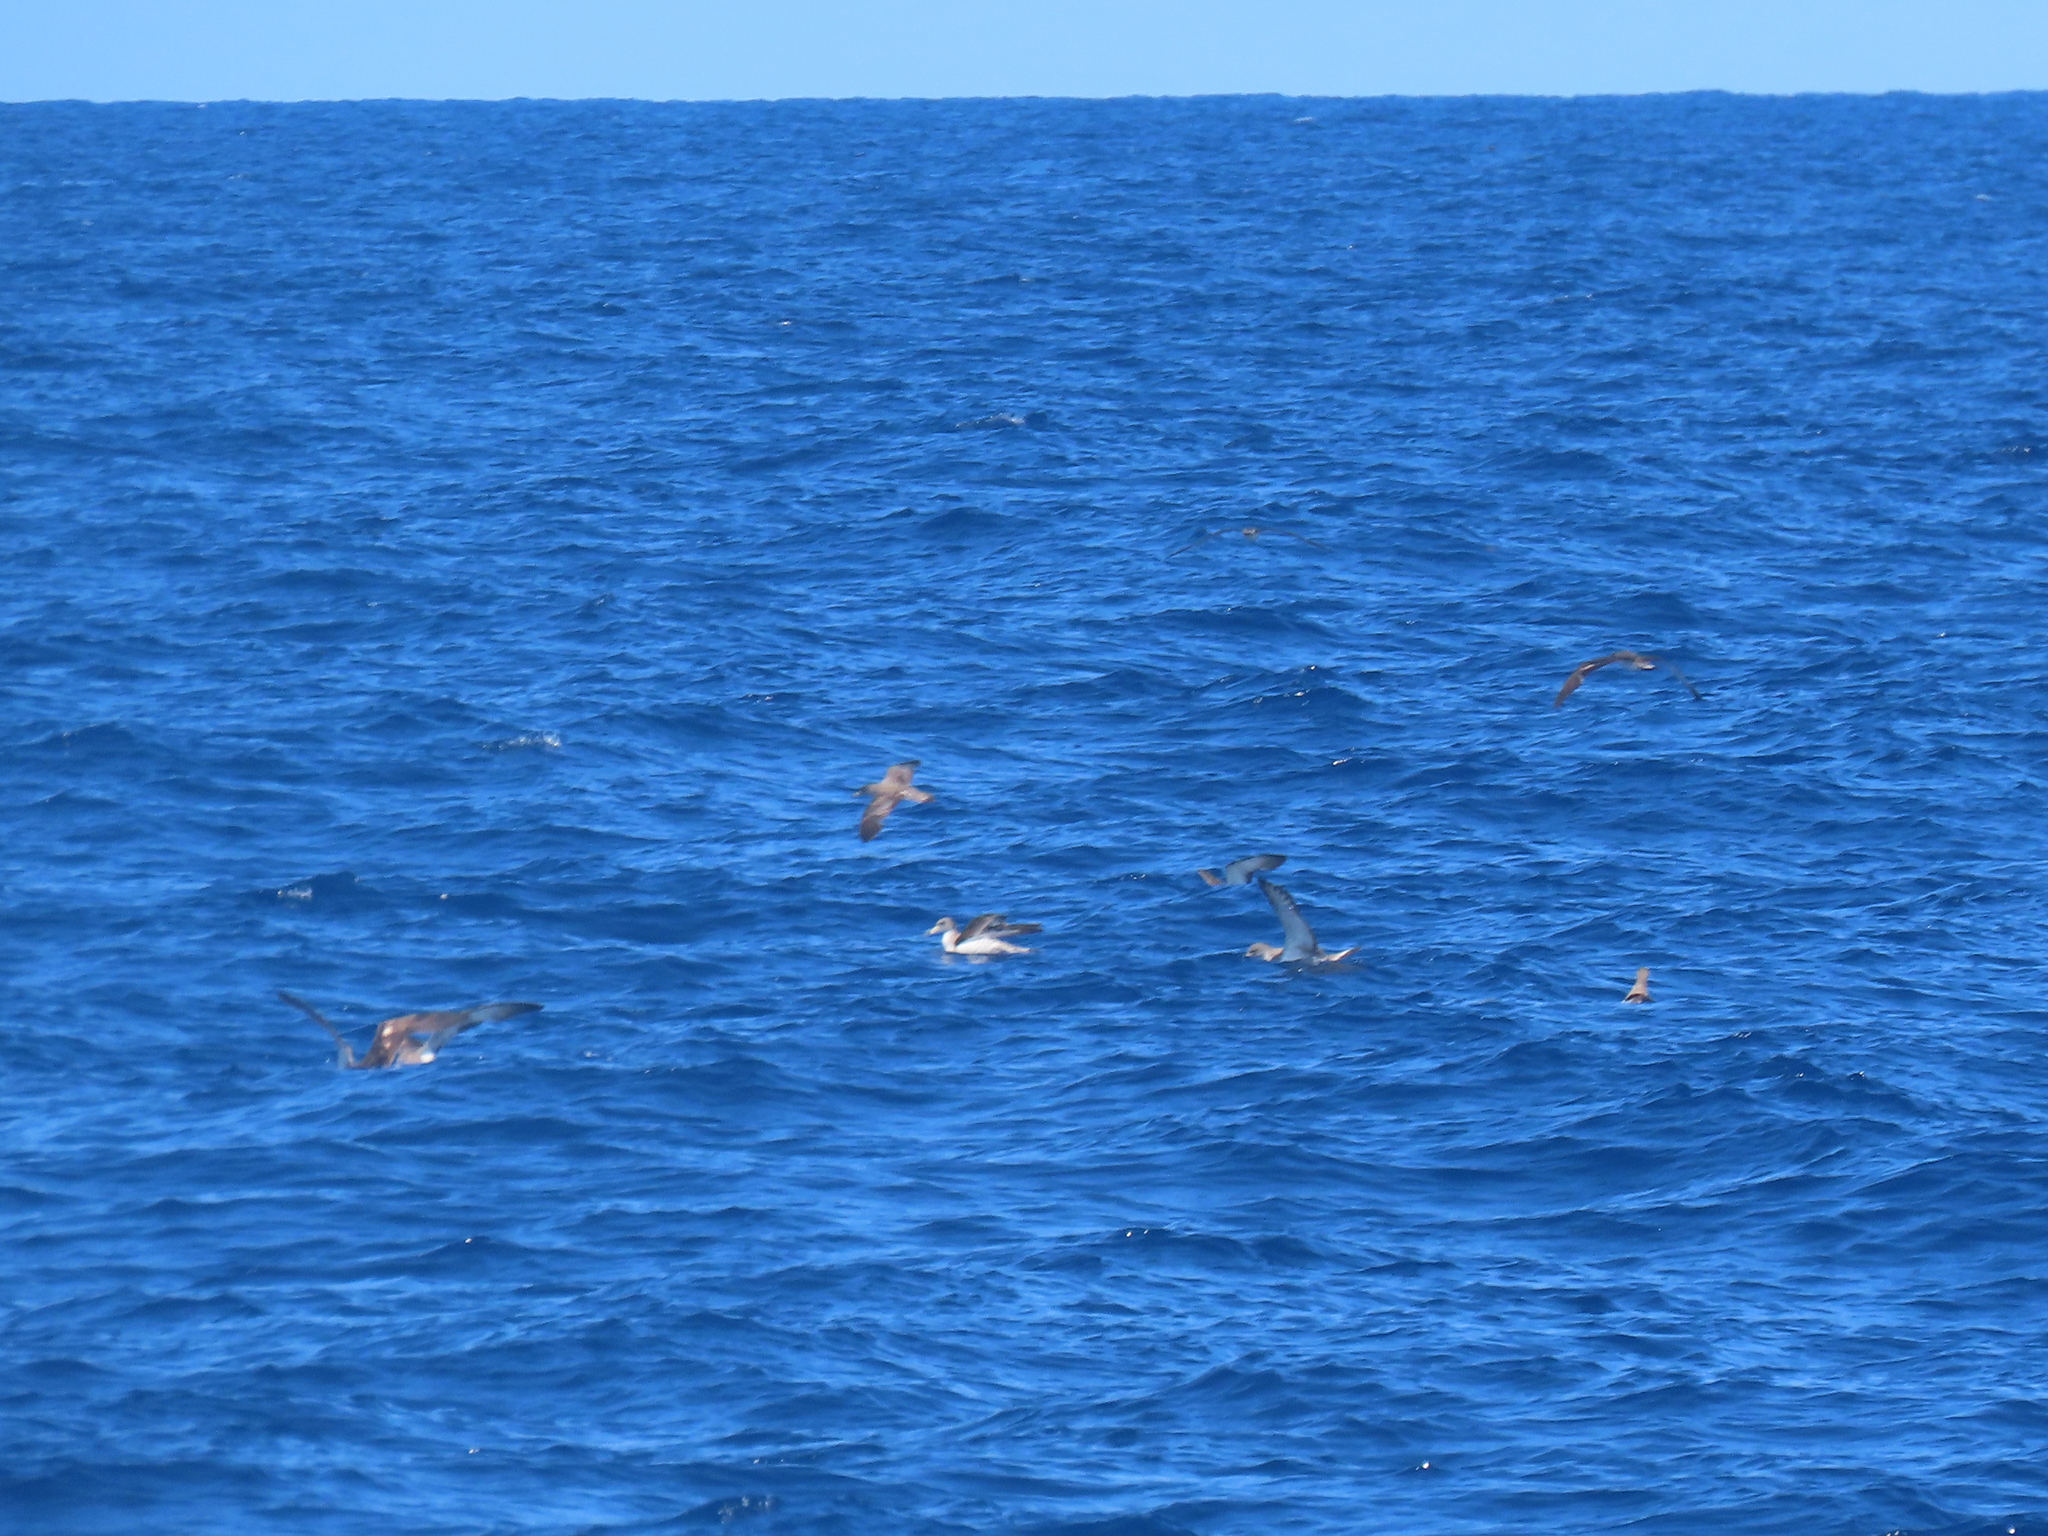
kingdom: Animalia
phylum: Chordata
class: Aves
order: Procellariiformes
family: Procellariidae
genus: Calonectris
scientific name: Calonectris diomedea
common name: Cory's shearwater
